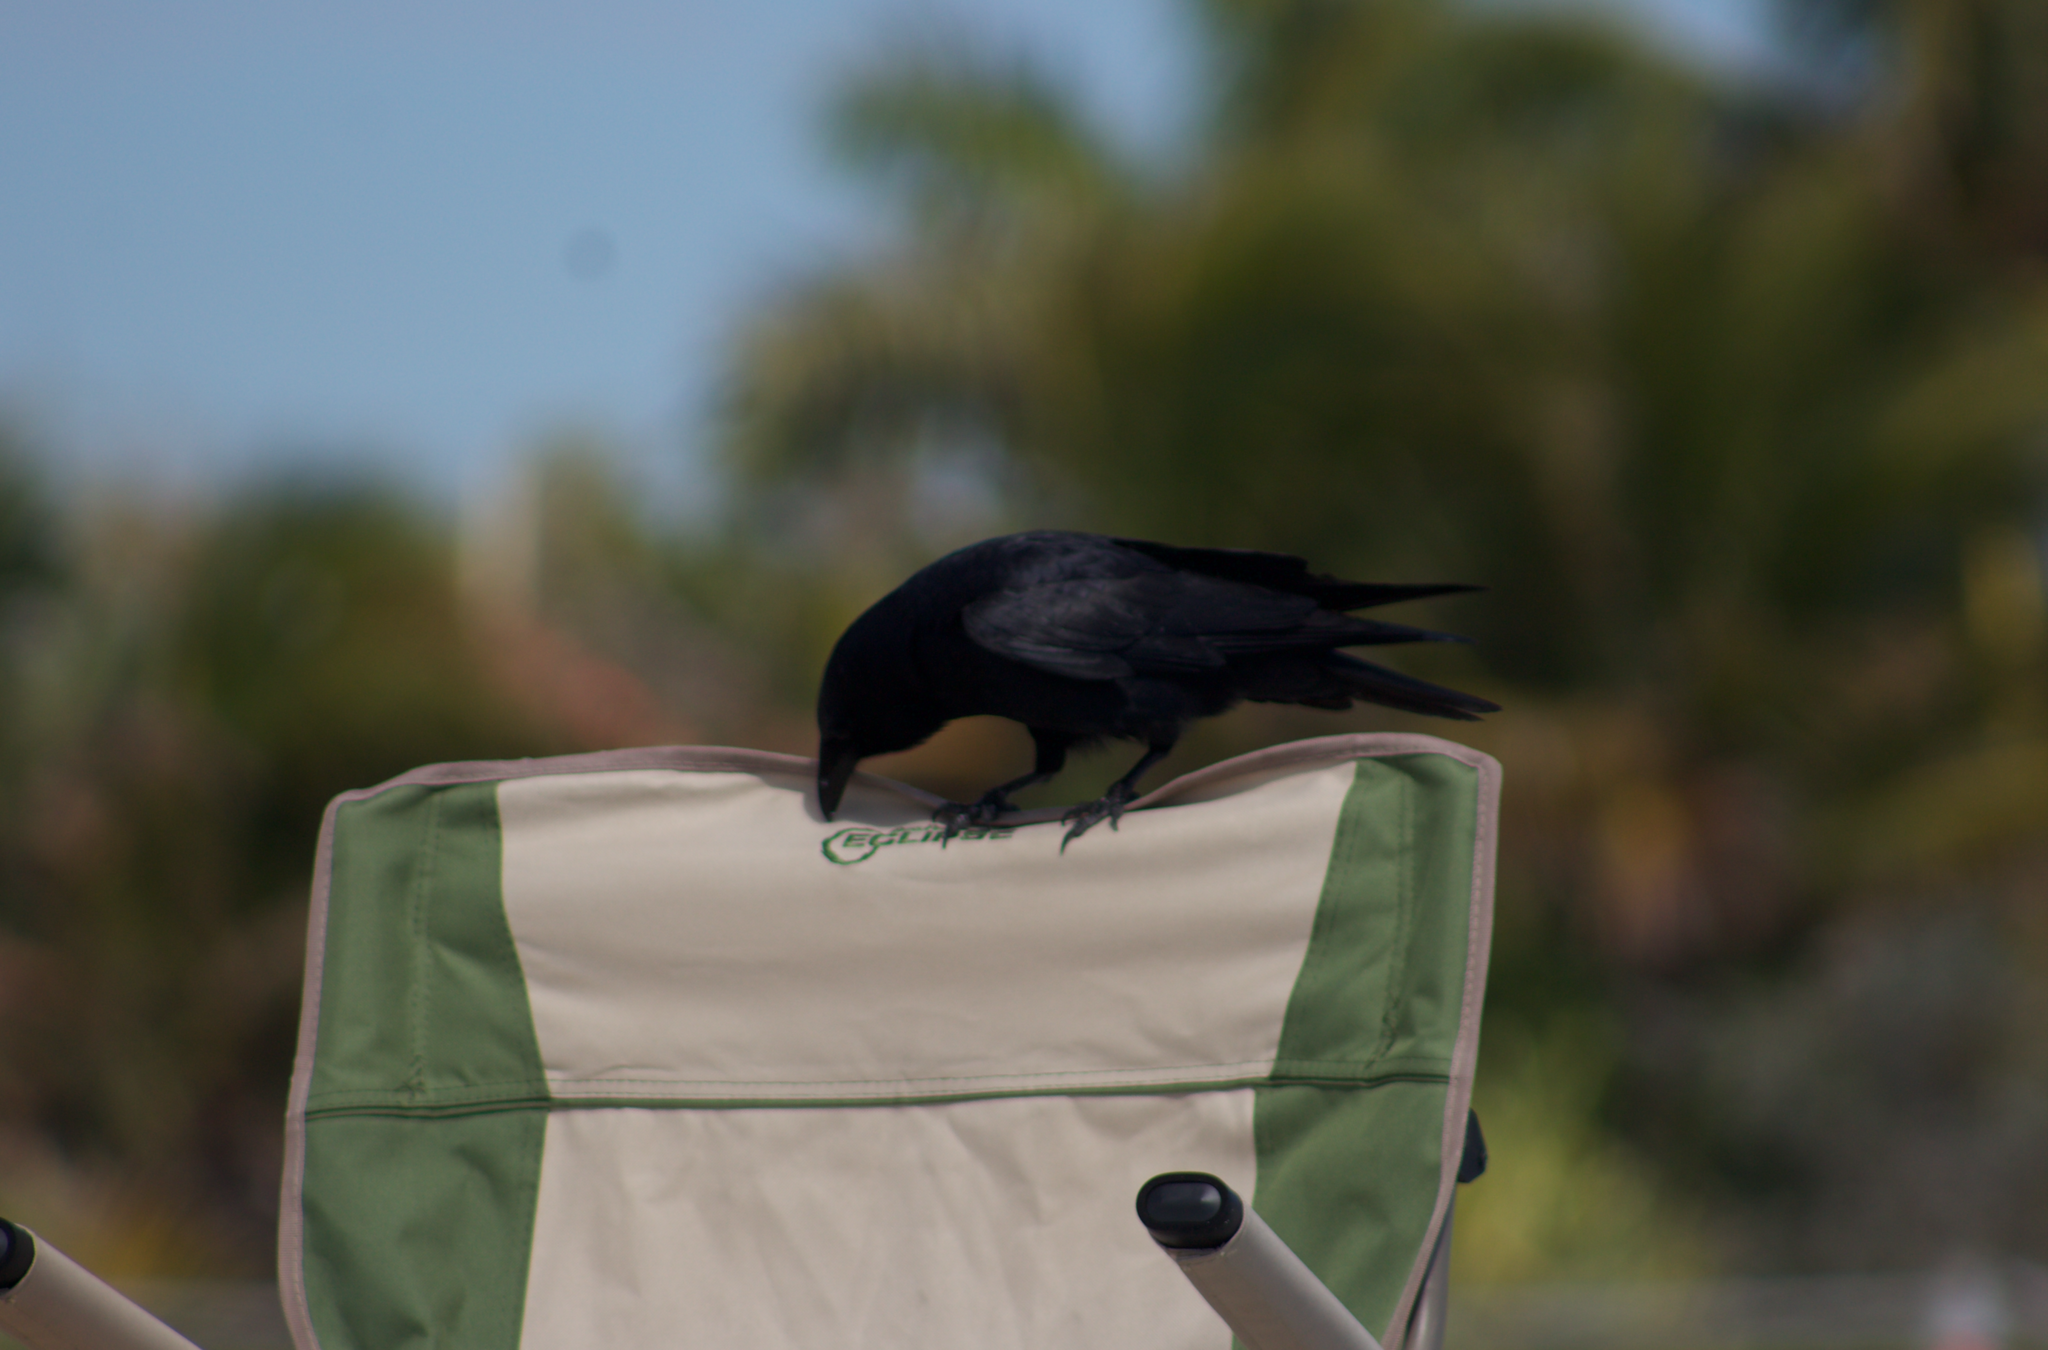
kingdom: Animalia
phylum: Chordata
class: Aves
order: Passeriformes
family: Corvidae
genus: Corvus
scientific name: Corvus ossifragus
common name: Fish crow
